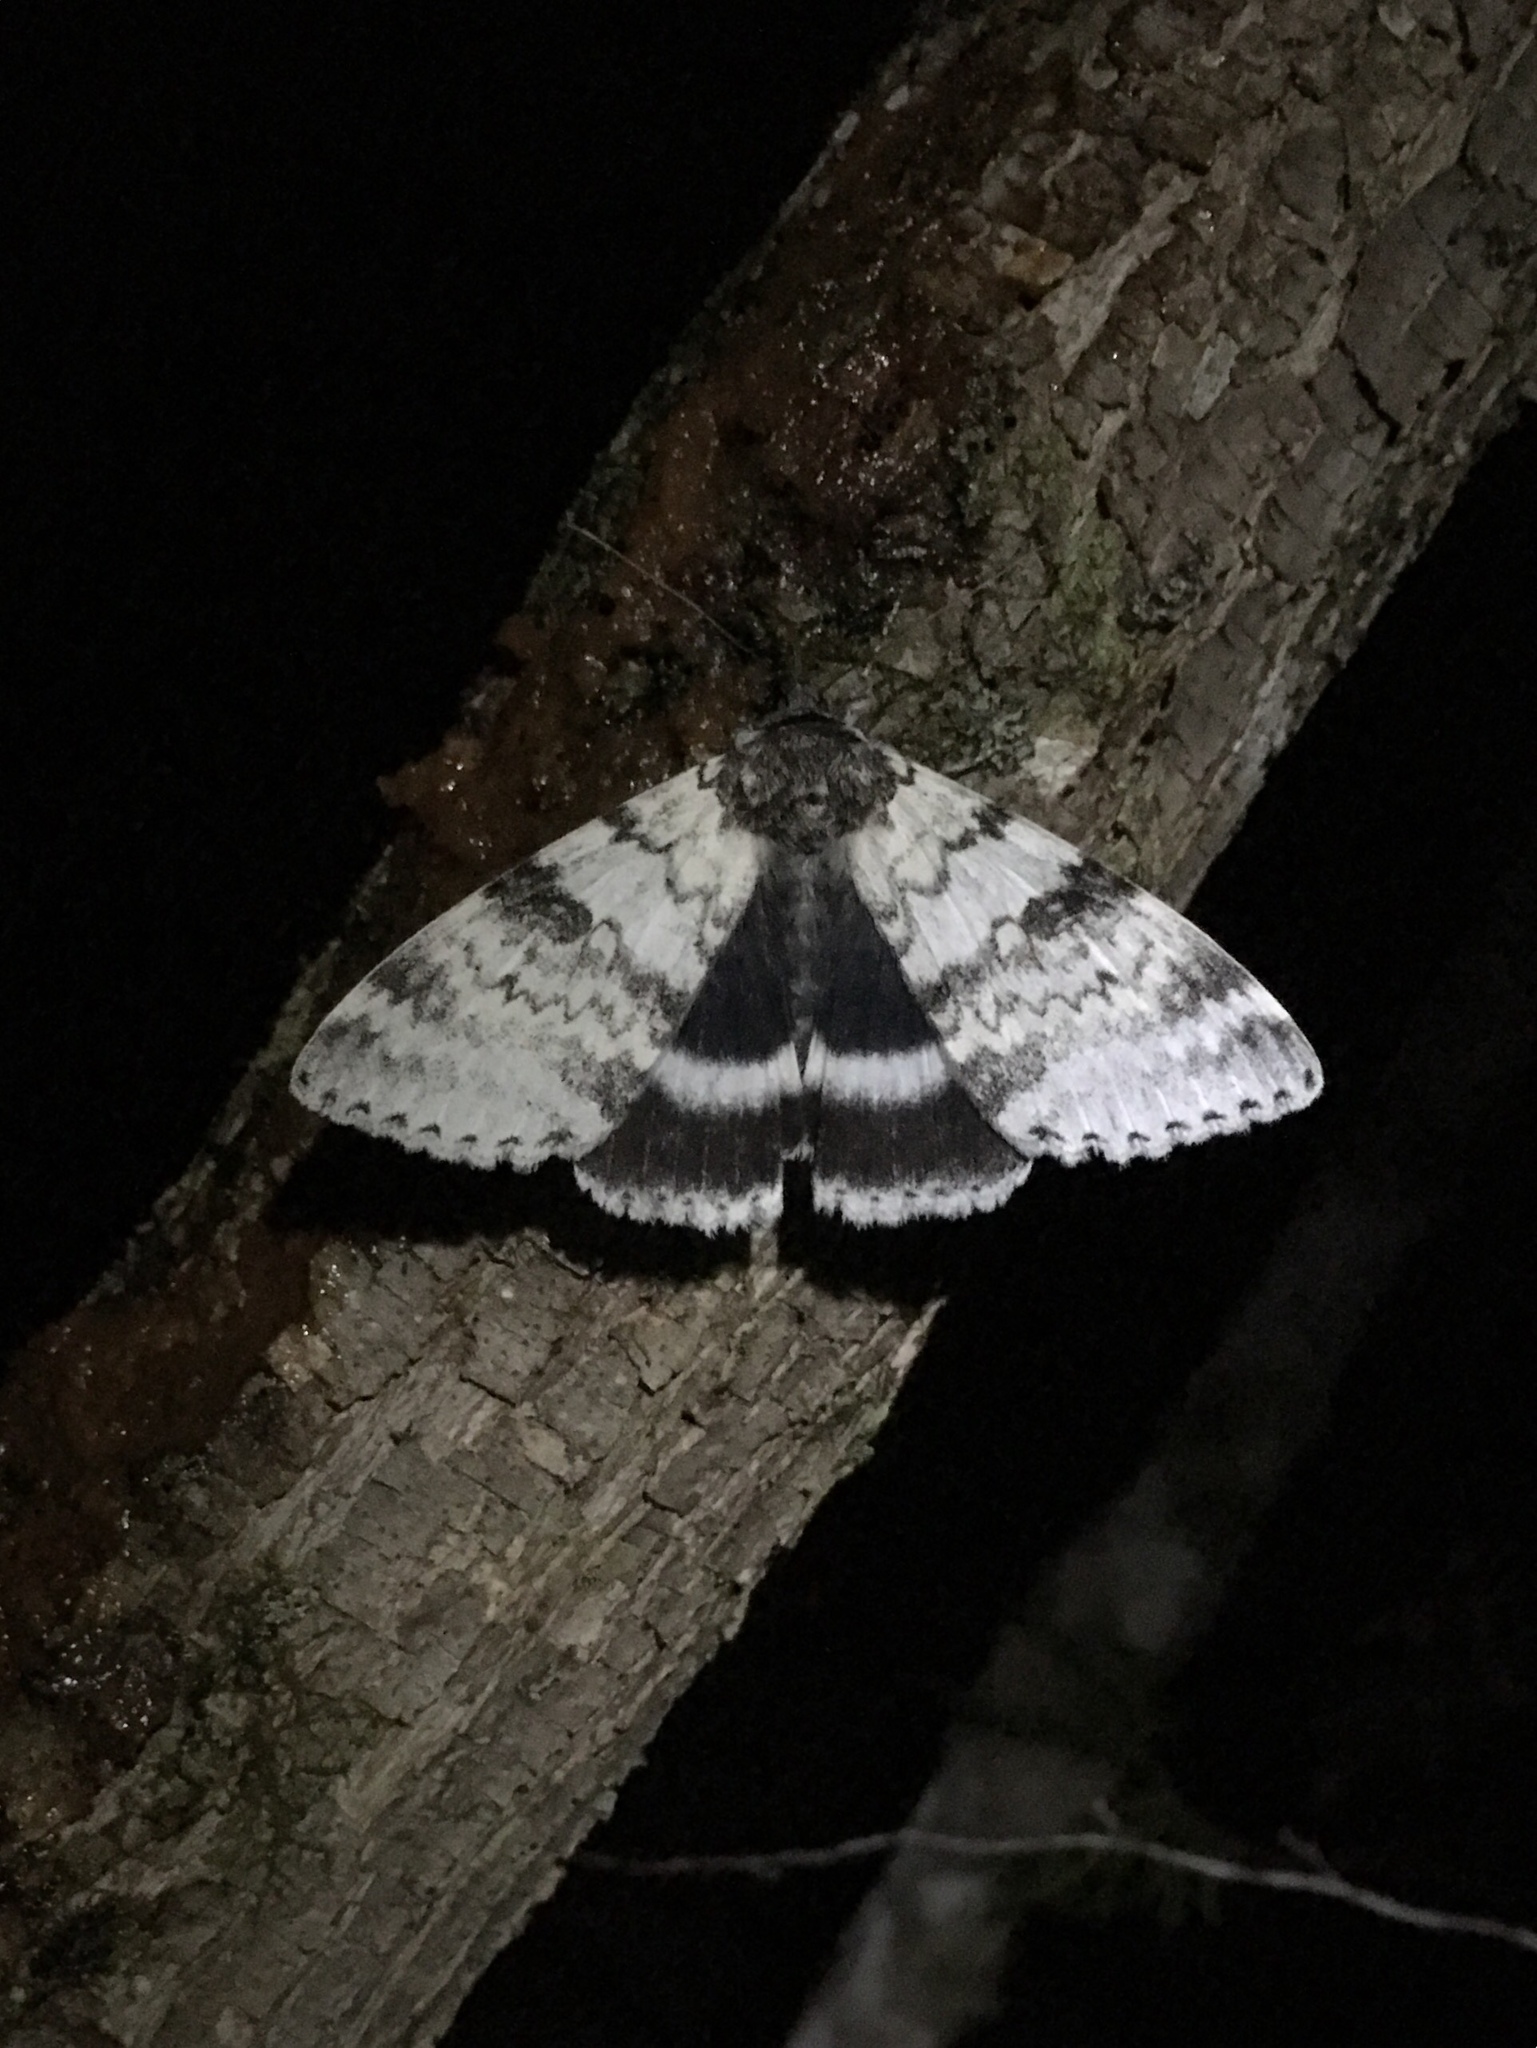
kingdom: Animalia
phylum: Arthropoda
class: Insecta
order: Lepidoptera
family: Erebidae
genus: Catocala
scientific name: Catocala relicta
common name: White underwing
